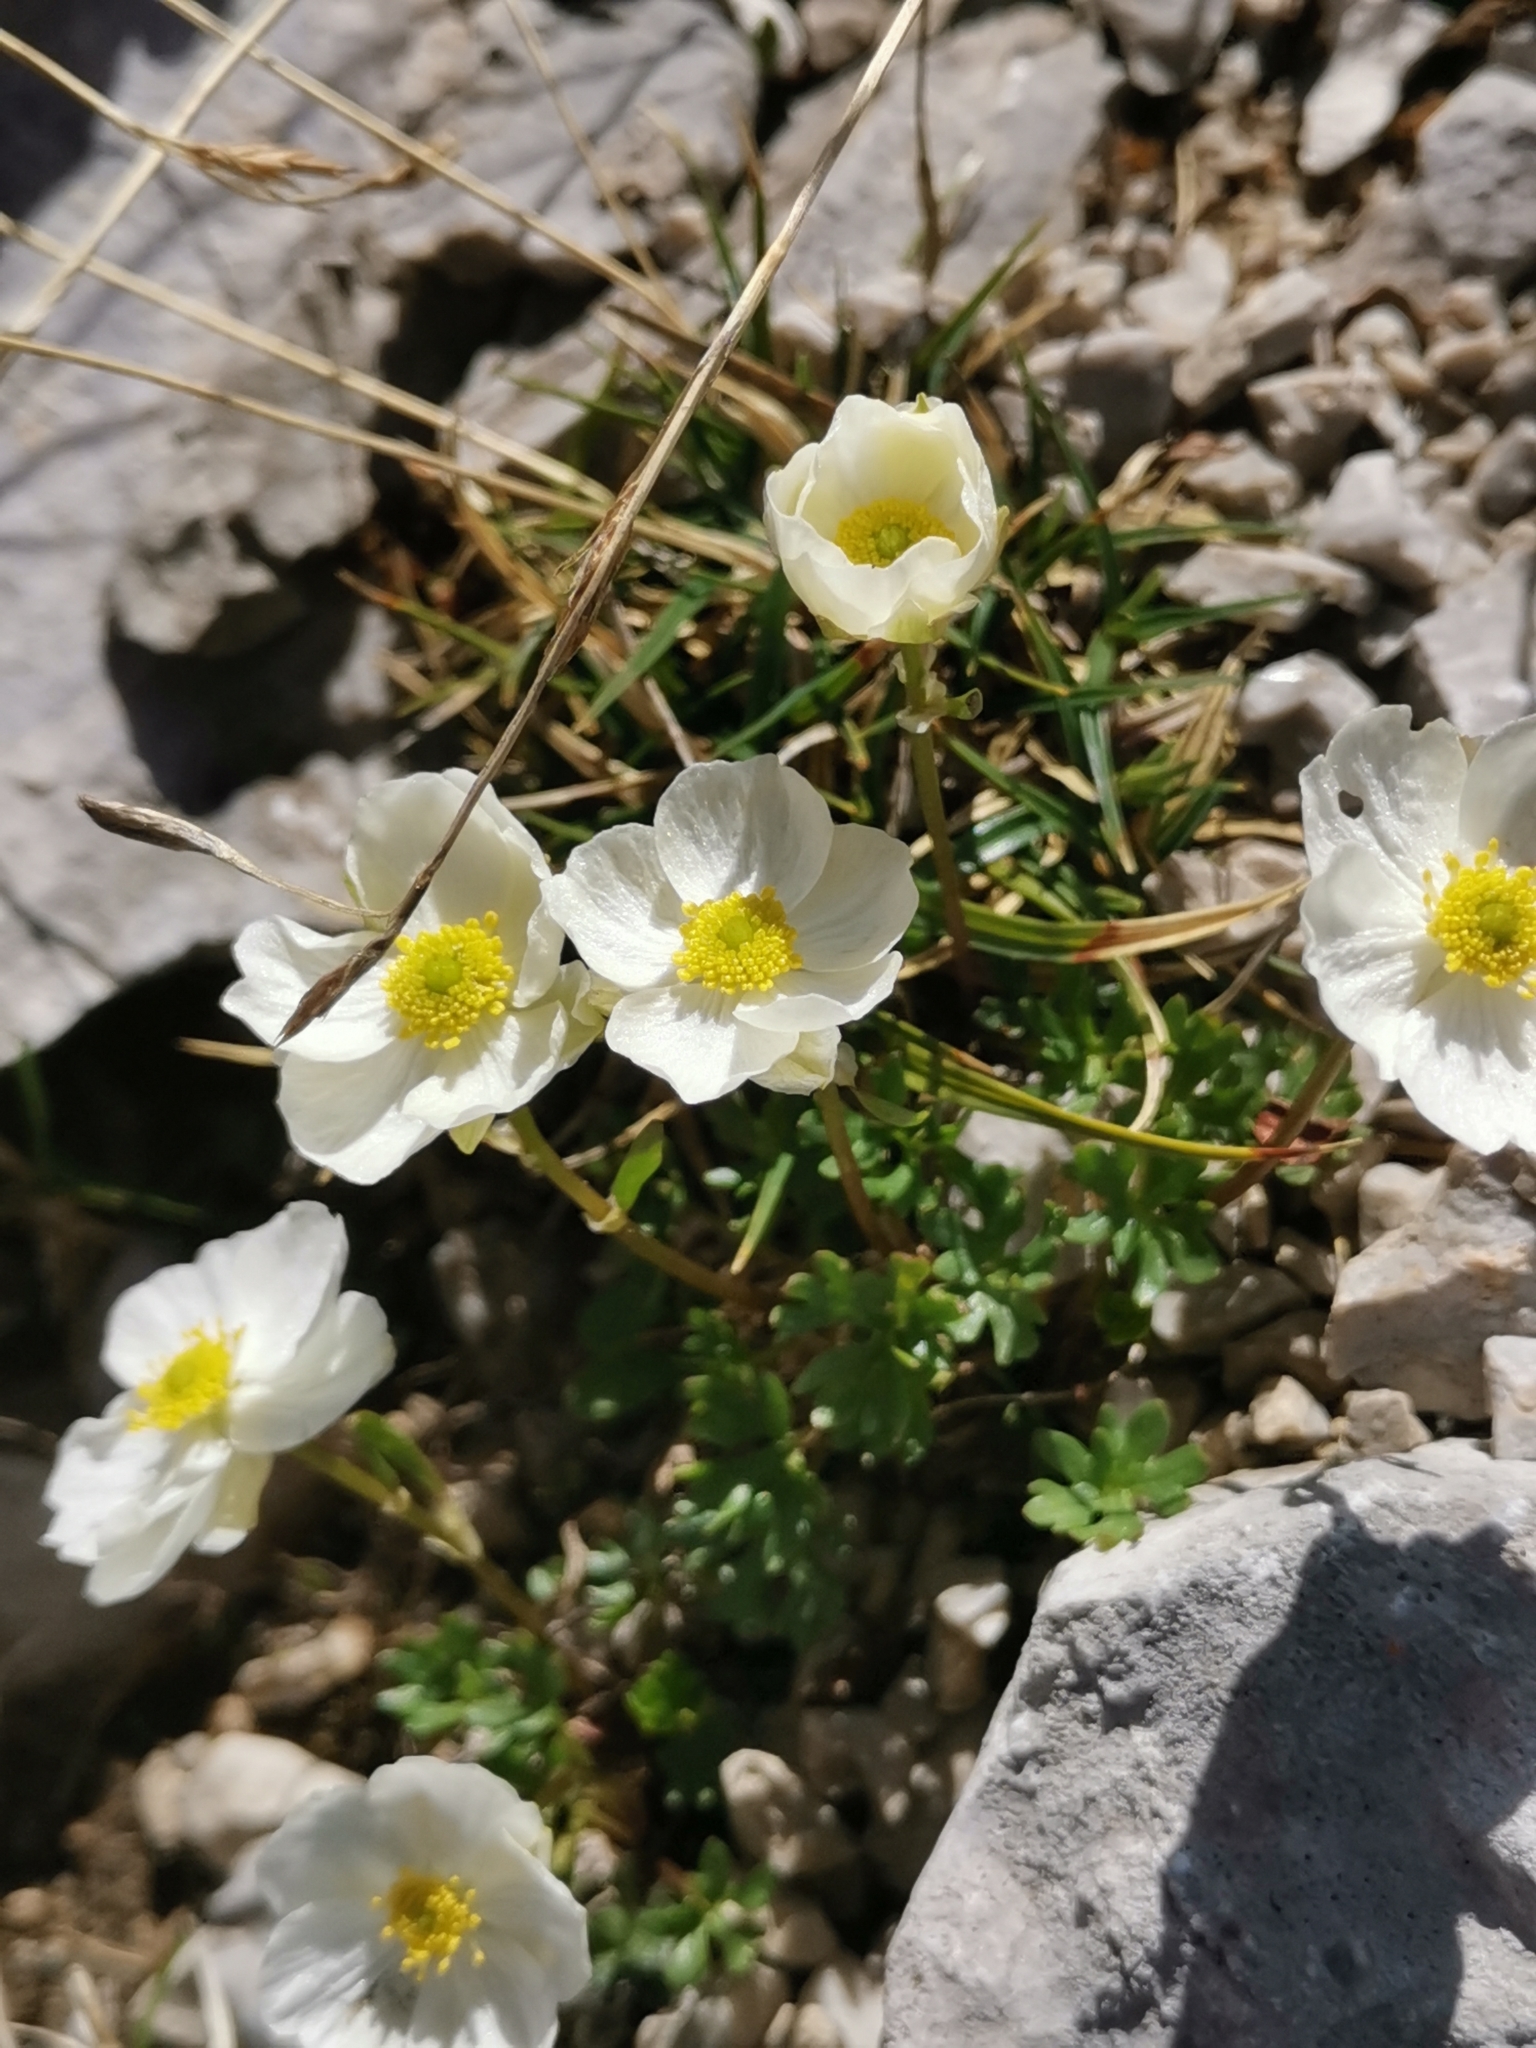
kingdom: Plantae
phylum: Tracheophyta
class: Magnoliopsida
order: Ranunculales
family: Ranunculaceae
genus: Ranunculus
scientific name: Ranunculus traunfellneri
